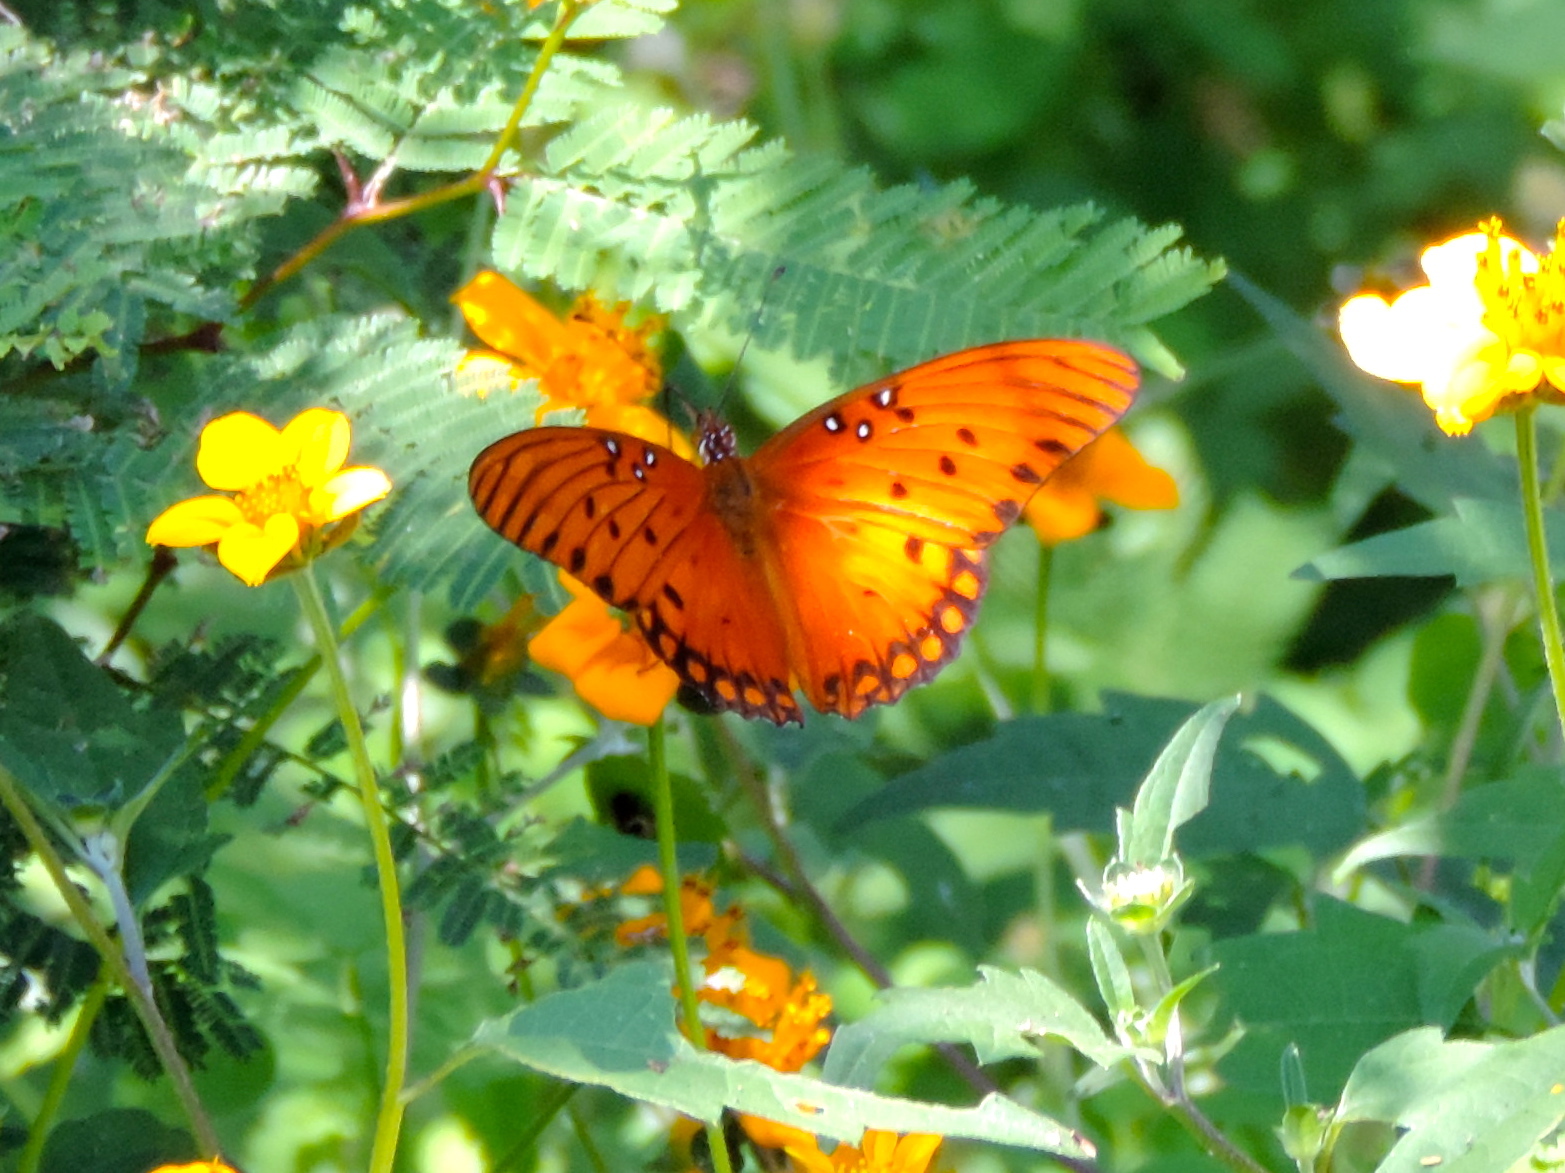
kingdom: Animalia
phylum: Arthropoda
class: Insecta
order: Lepidoptera
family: Nymphalidae
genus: Dione
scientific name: Dione vanillae
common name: Gulf fritillary
